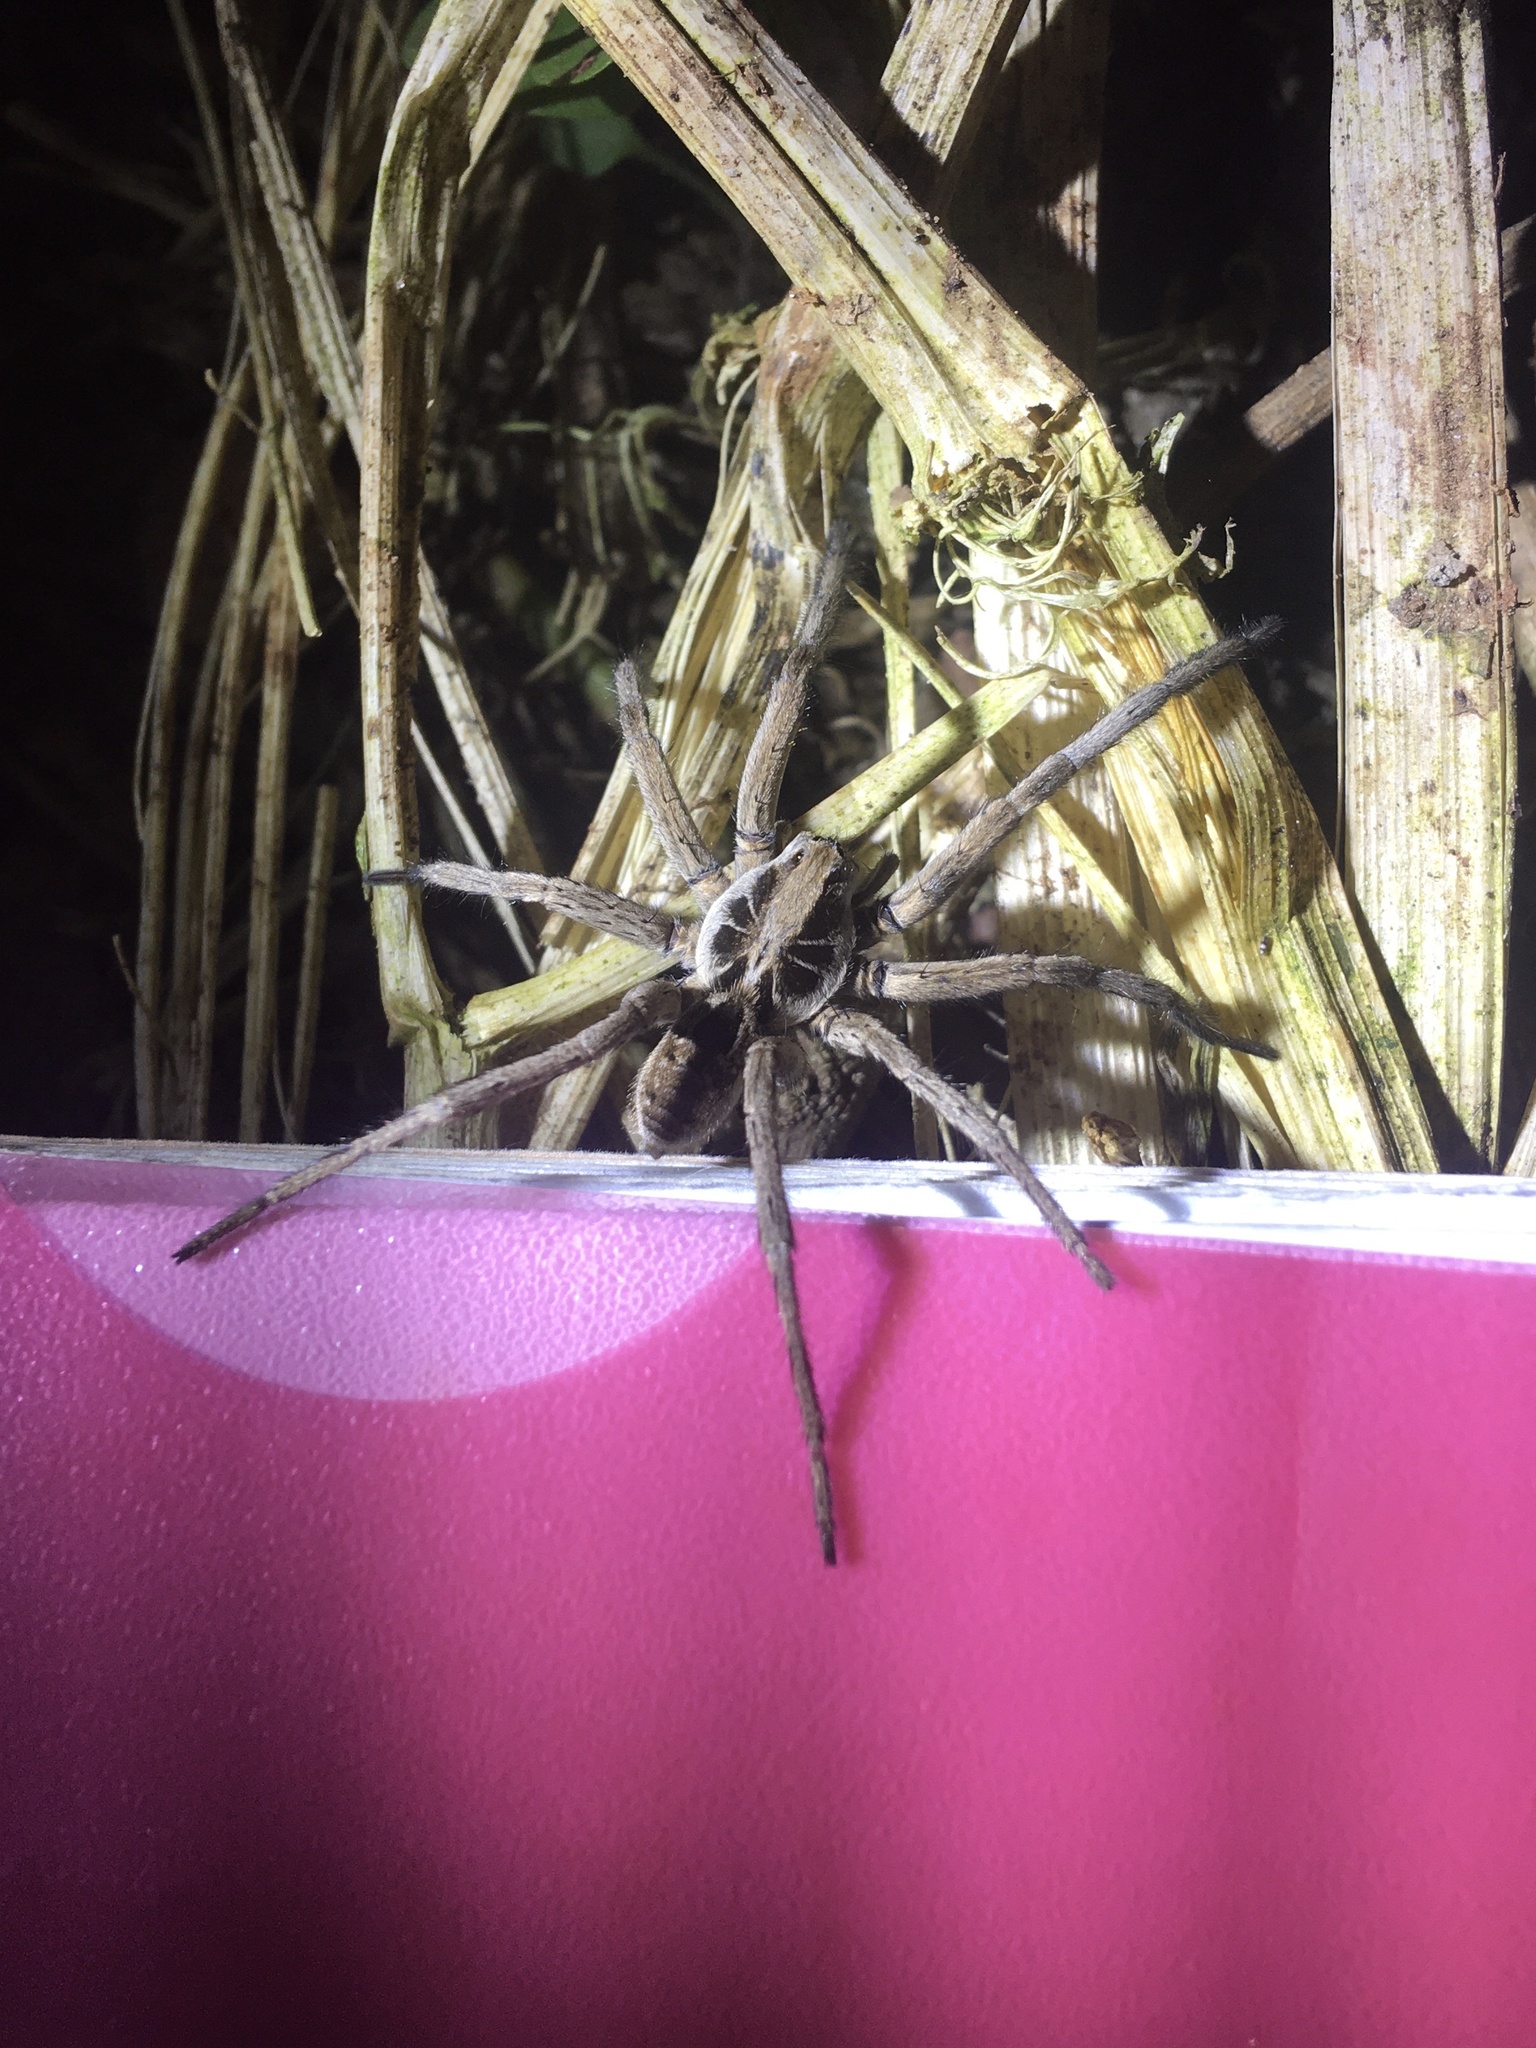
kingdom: Animalia
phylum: Arthropoda
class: Arachnida
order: Araneae
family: Lycosidae
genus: Lycosa
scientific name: Lycosa erythrognatha
